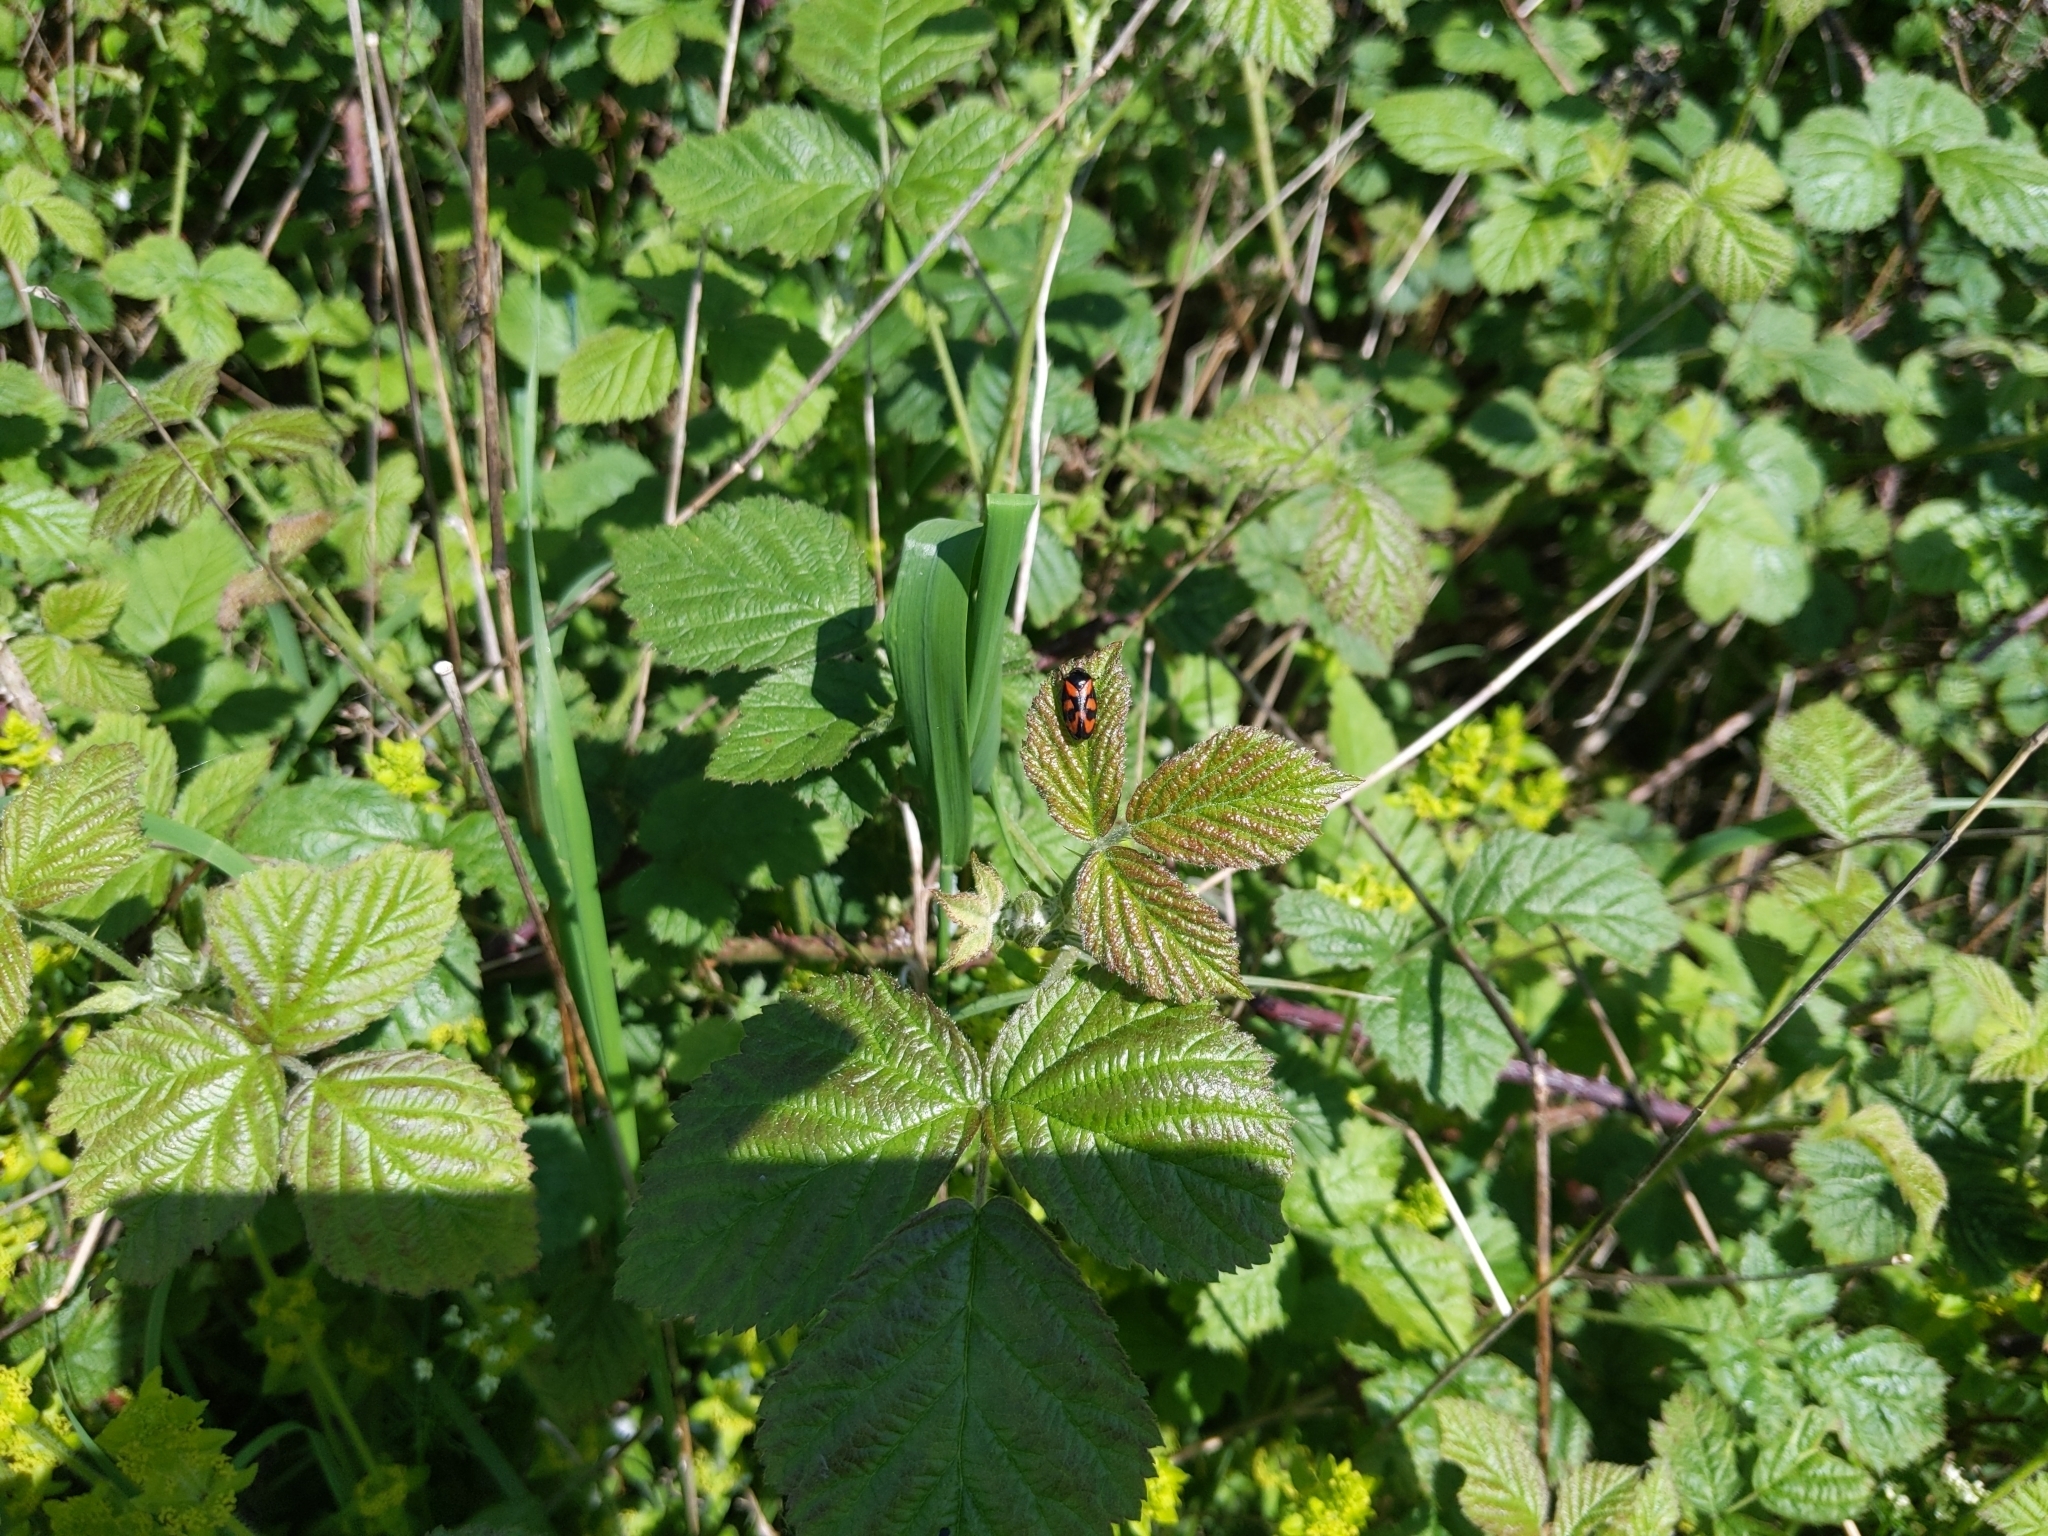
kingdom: Animalia
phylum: Arthropoda
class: Insecta
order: Hemiptera
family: Cercopidae
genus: Cercopis
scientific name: Cercopis vulnerata
